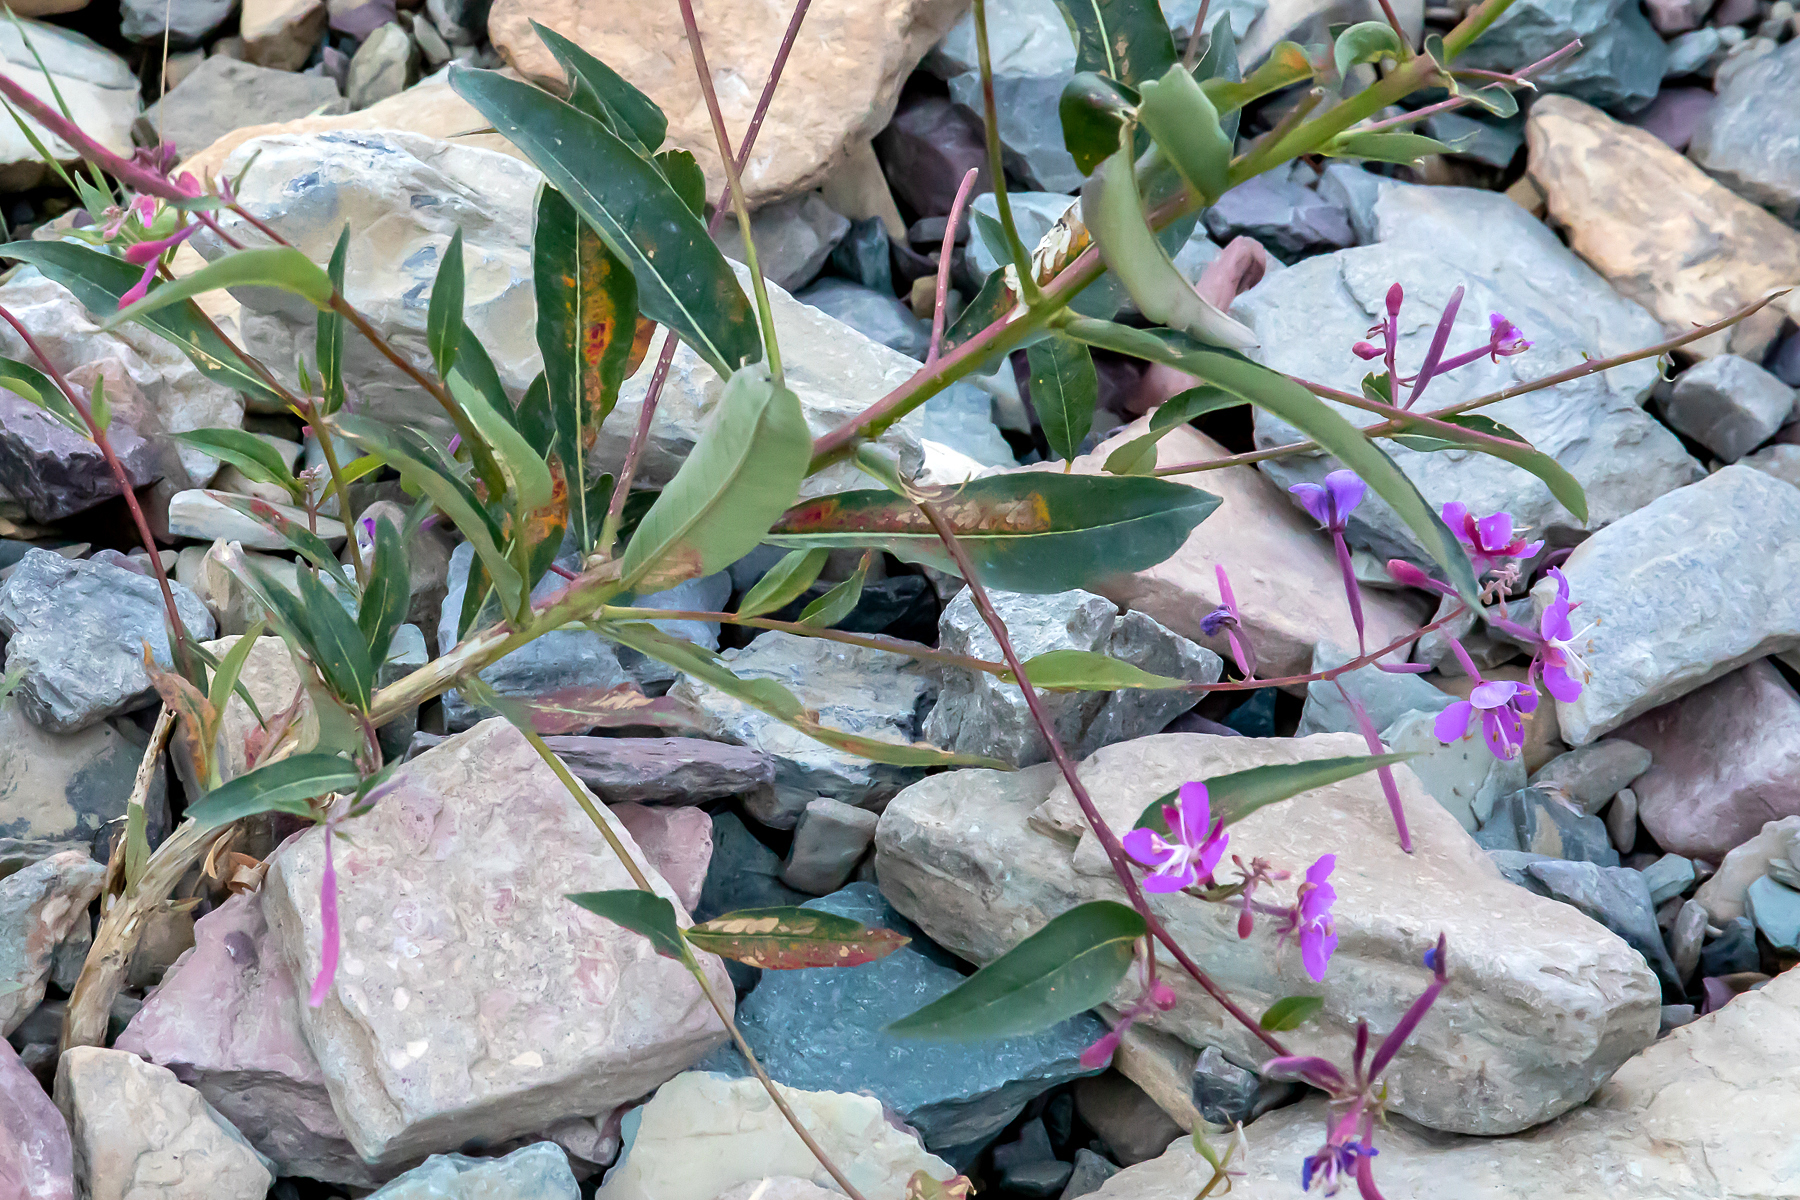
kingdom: Plantae
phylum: Tracheophyta
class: Magnoliopsida
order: Myrtales
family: Onagraceae
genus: Chamaenerion
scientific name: Chamaenerion angustifolium
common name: Fireweed
